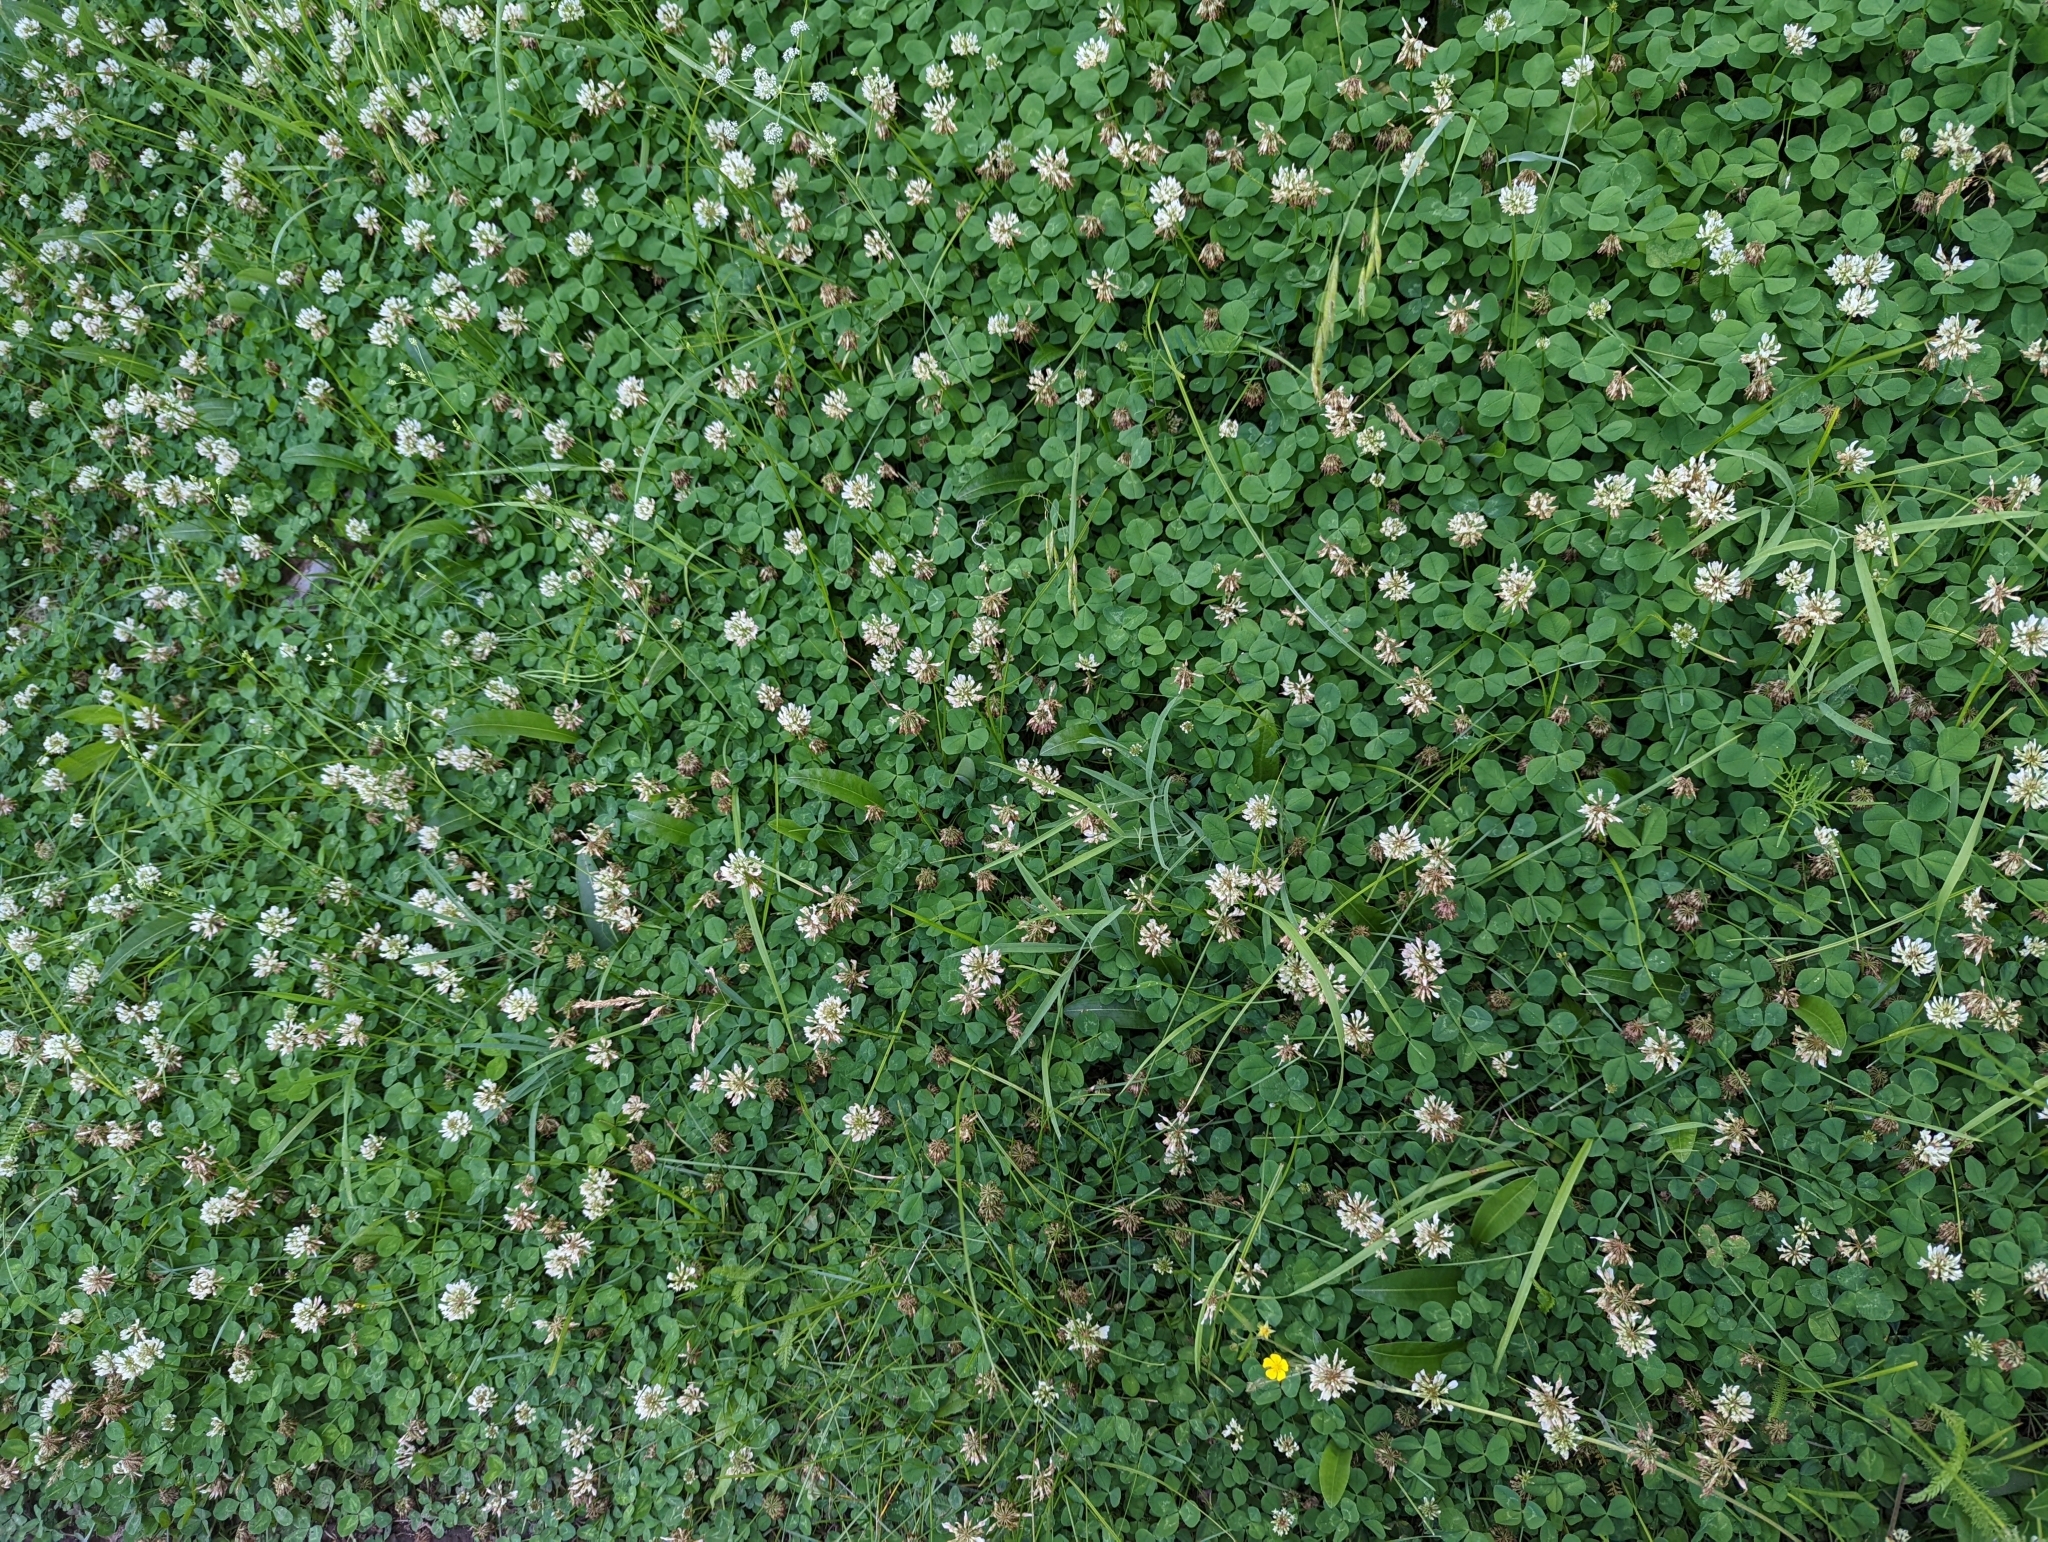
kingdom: Plantae
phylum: Tracheophyta
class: Magnoliopsida
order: Fabales
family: Fabaceae
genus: Trifolium
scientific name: Trifolium repens
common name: White clover
